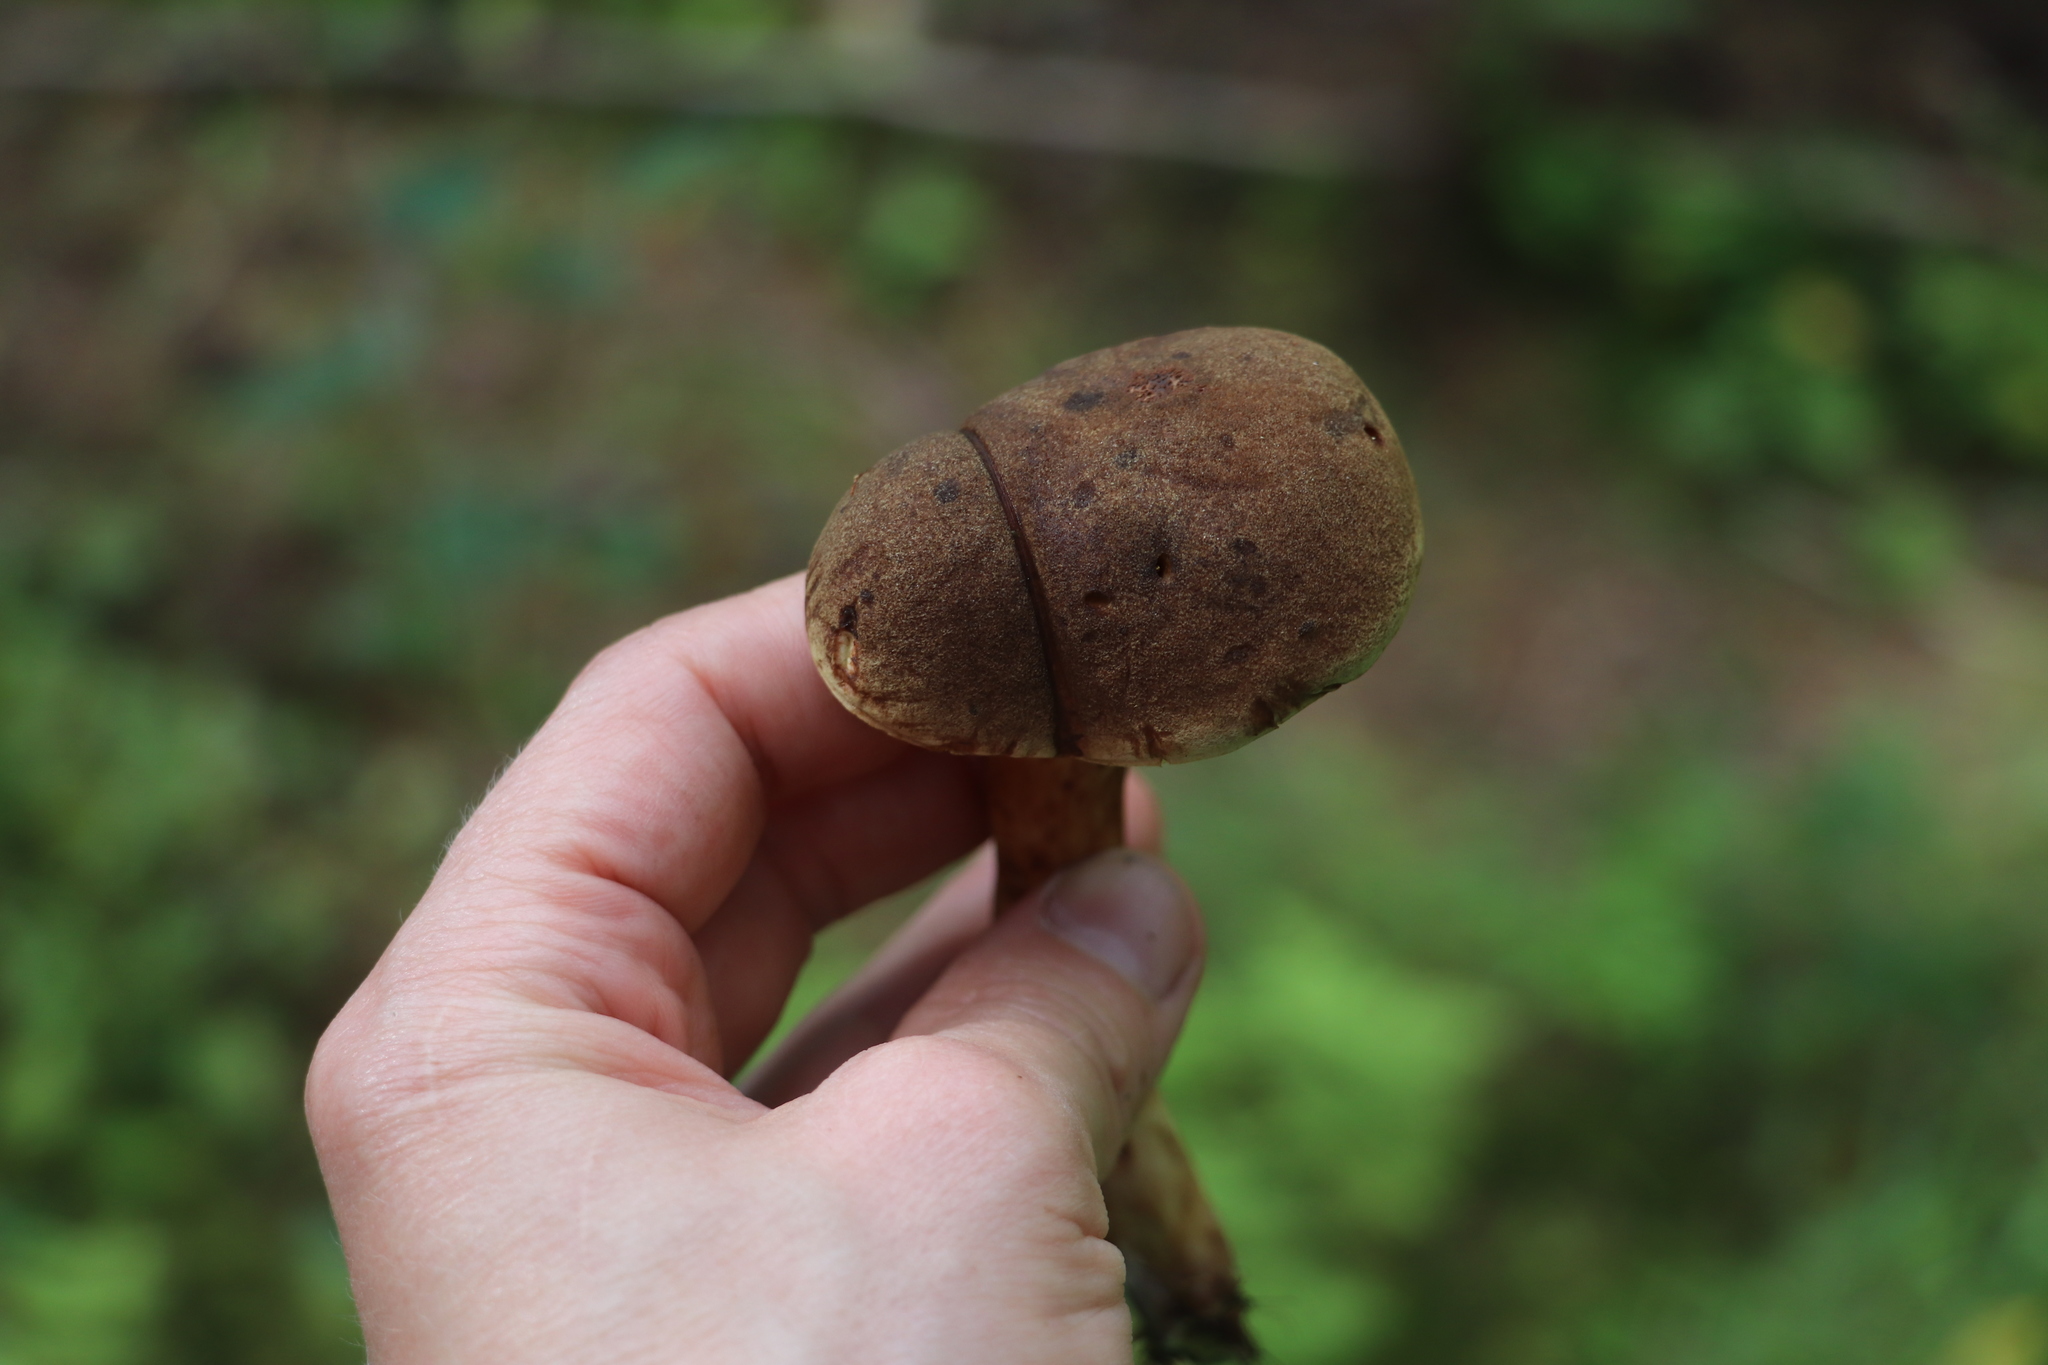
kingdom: Fungi
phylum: Basidiomycota
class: Agaricomycetes
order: Boletales
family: Boletaceae
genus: Xerocomus
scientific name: Xerocomus subtomentosus
